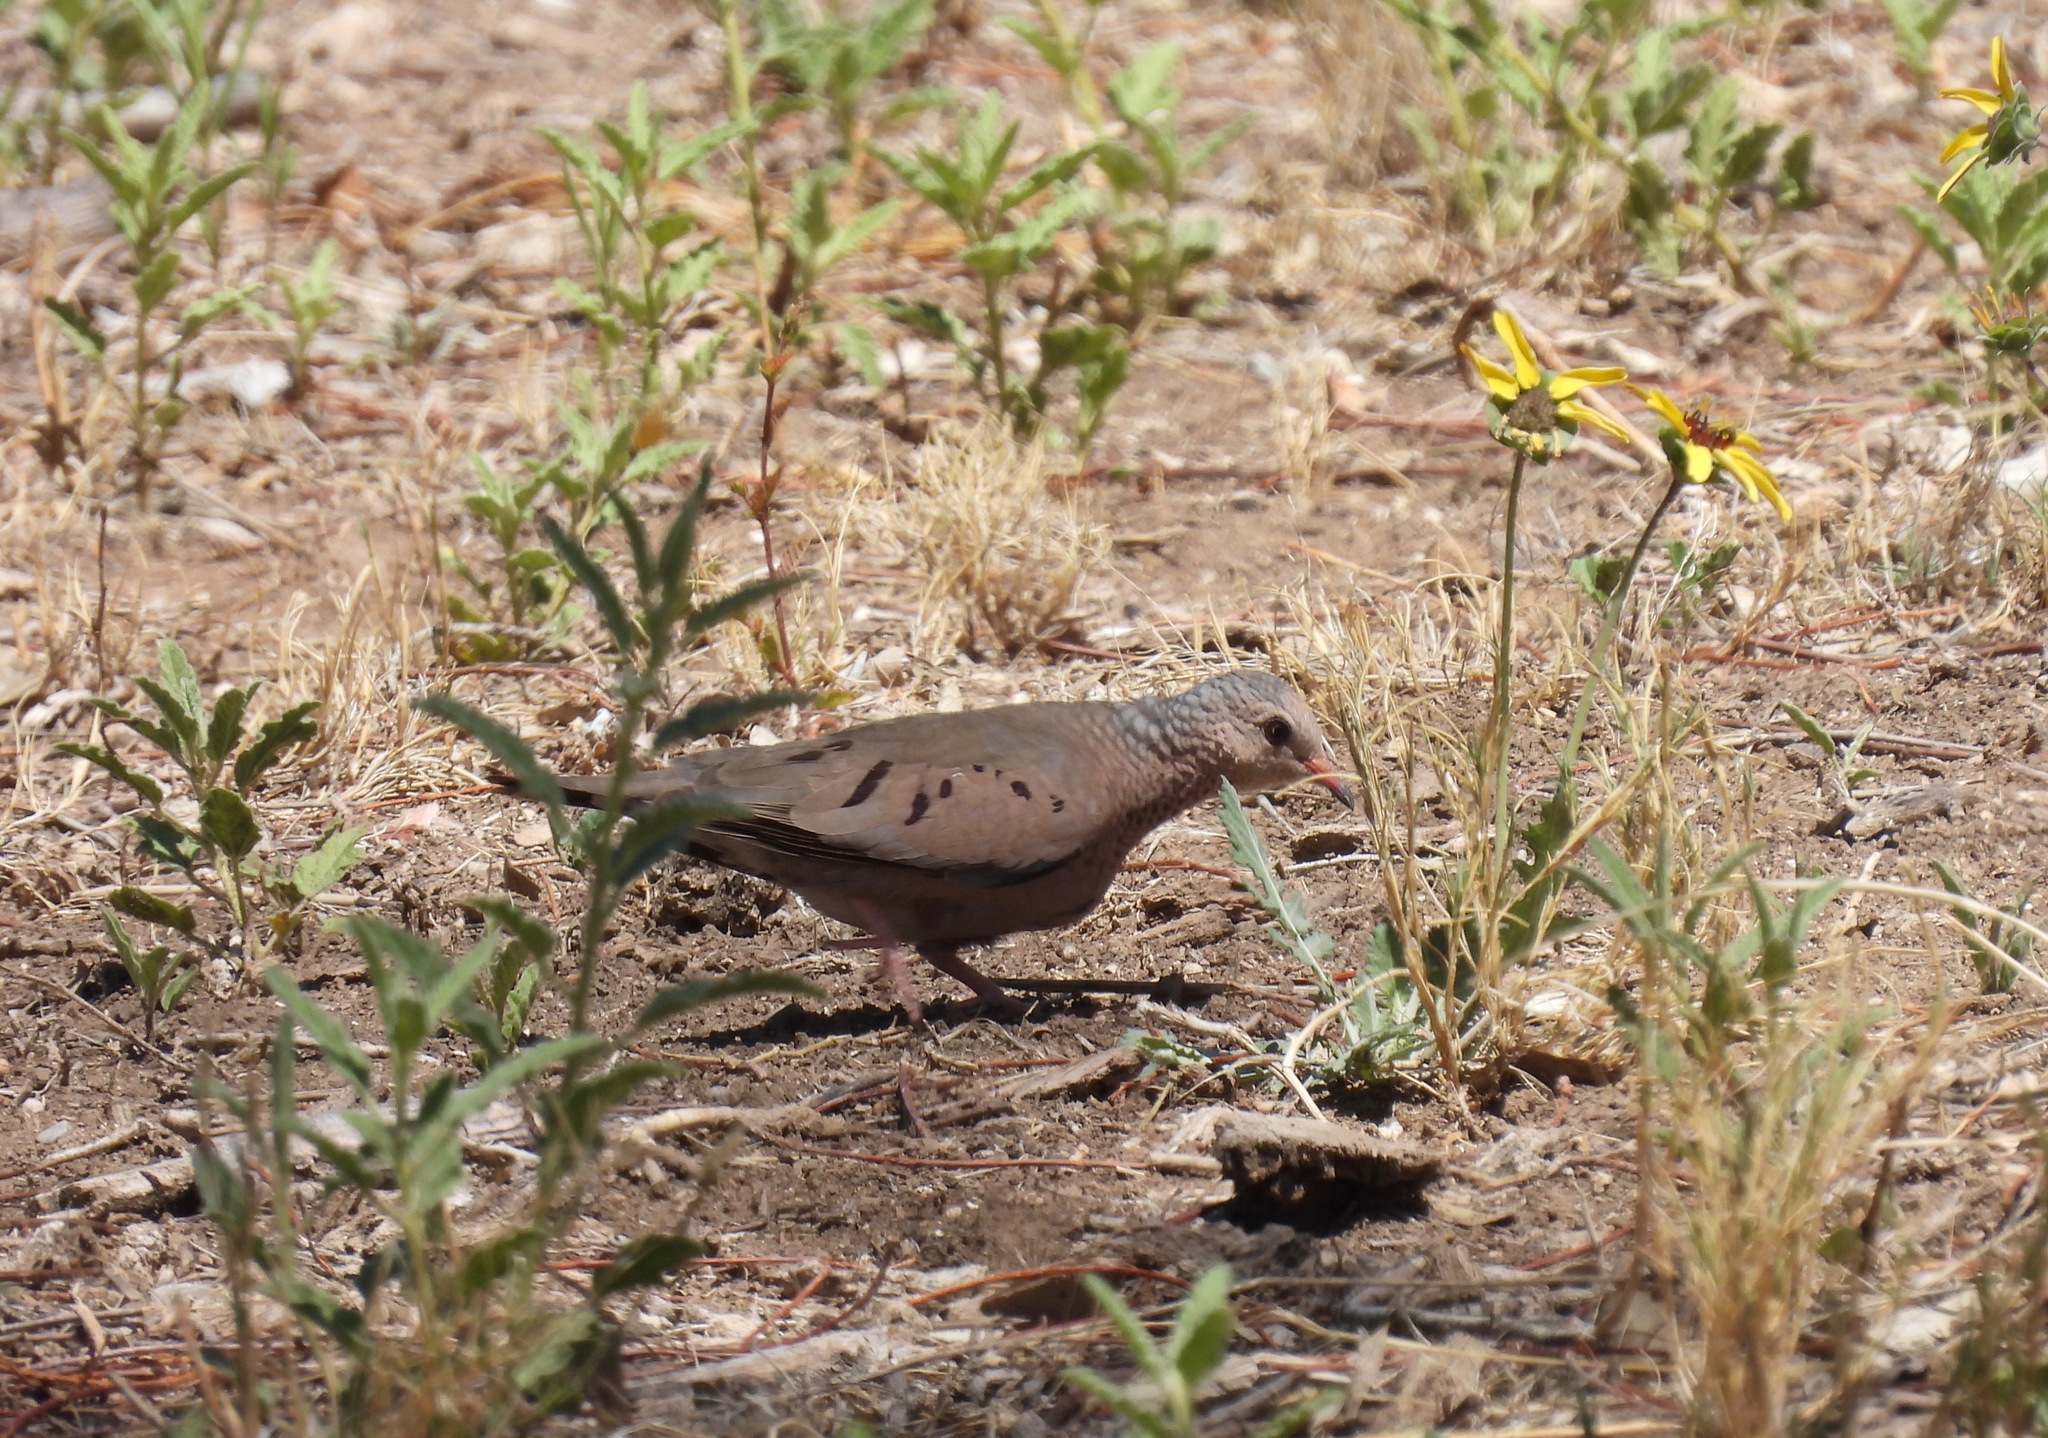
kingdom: Animalia
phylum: Chordata
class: Aves
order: Columbiformes
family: Columbidae
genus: Columbina
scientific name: Columbina passerina
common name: Common ground-dove
